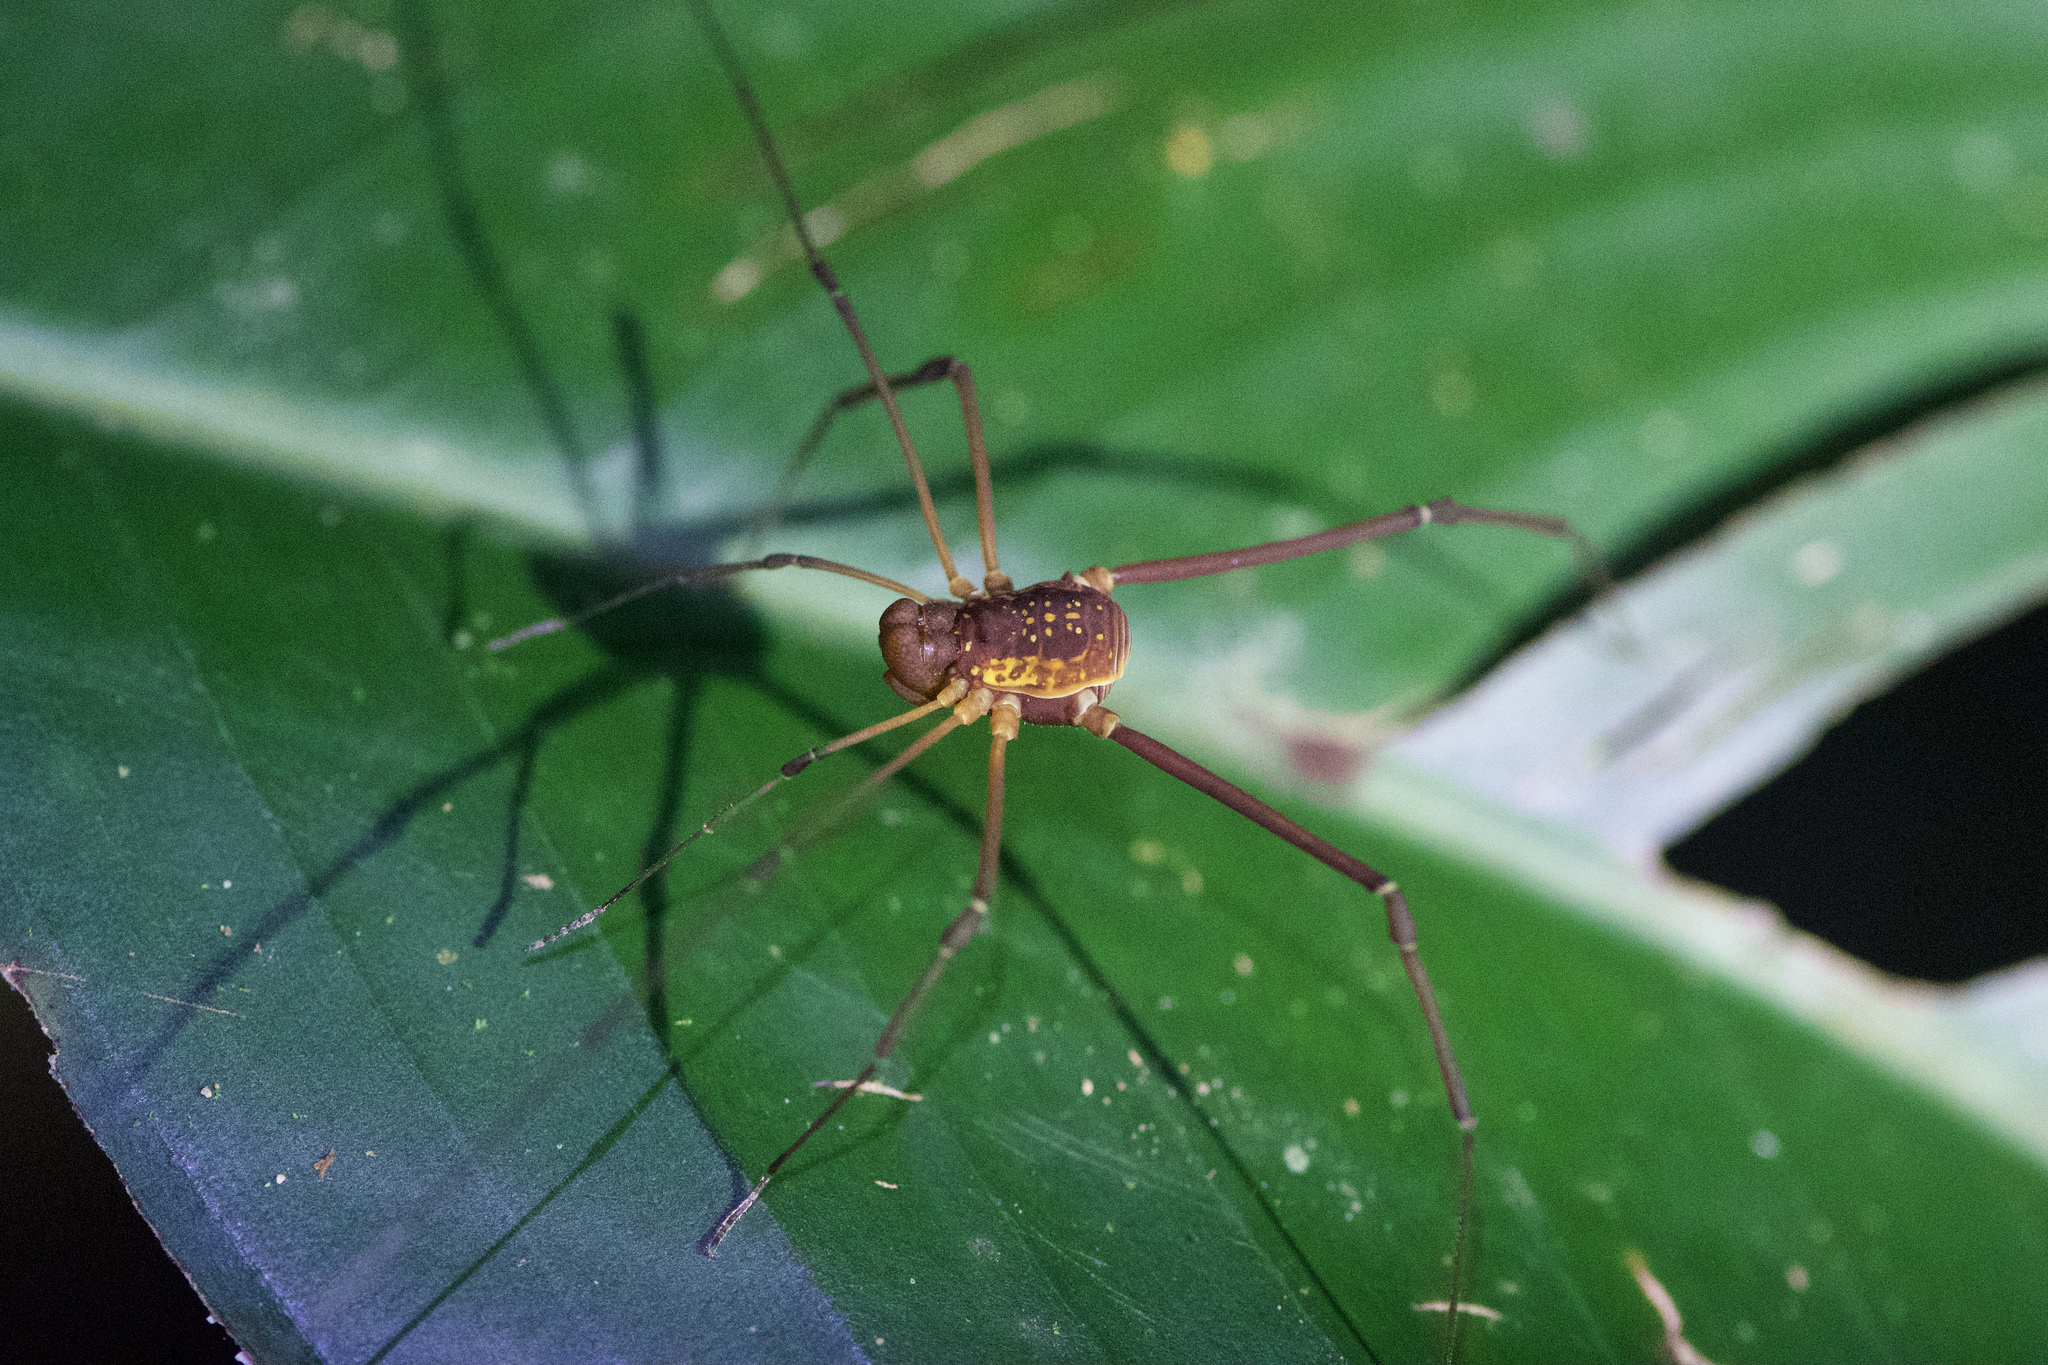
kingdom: Animalia
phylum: Arthropoda
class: Arachnida
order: Opiliones
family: Cosmetidae
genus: Poecilaemula
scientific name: Poecilaemula
